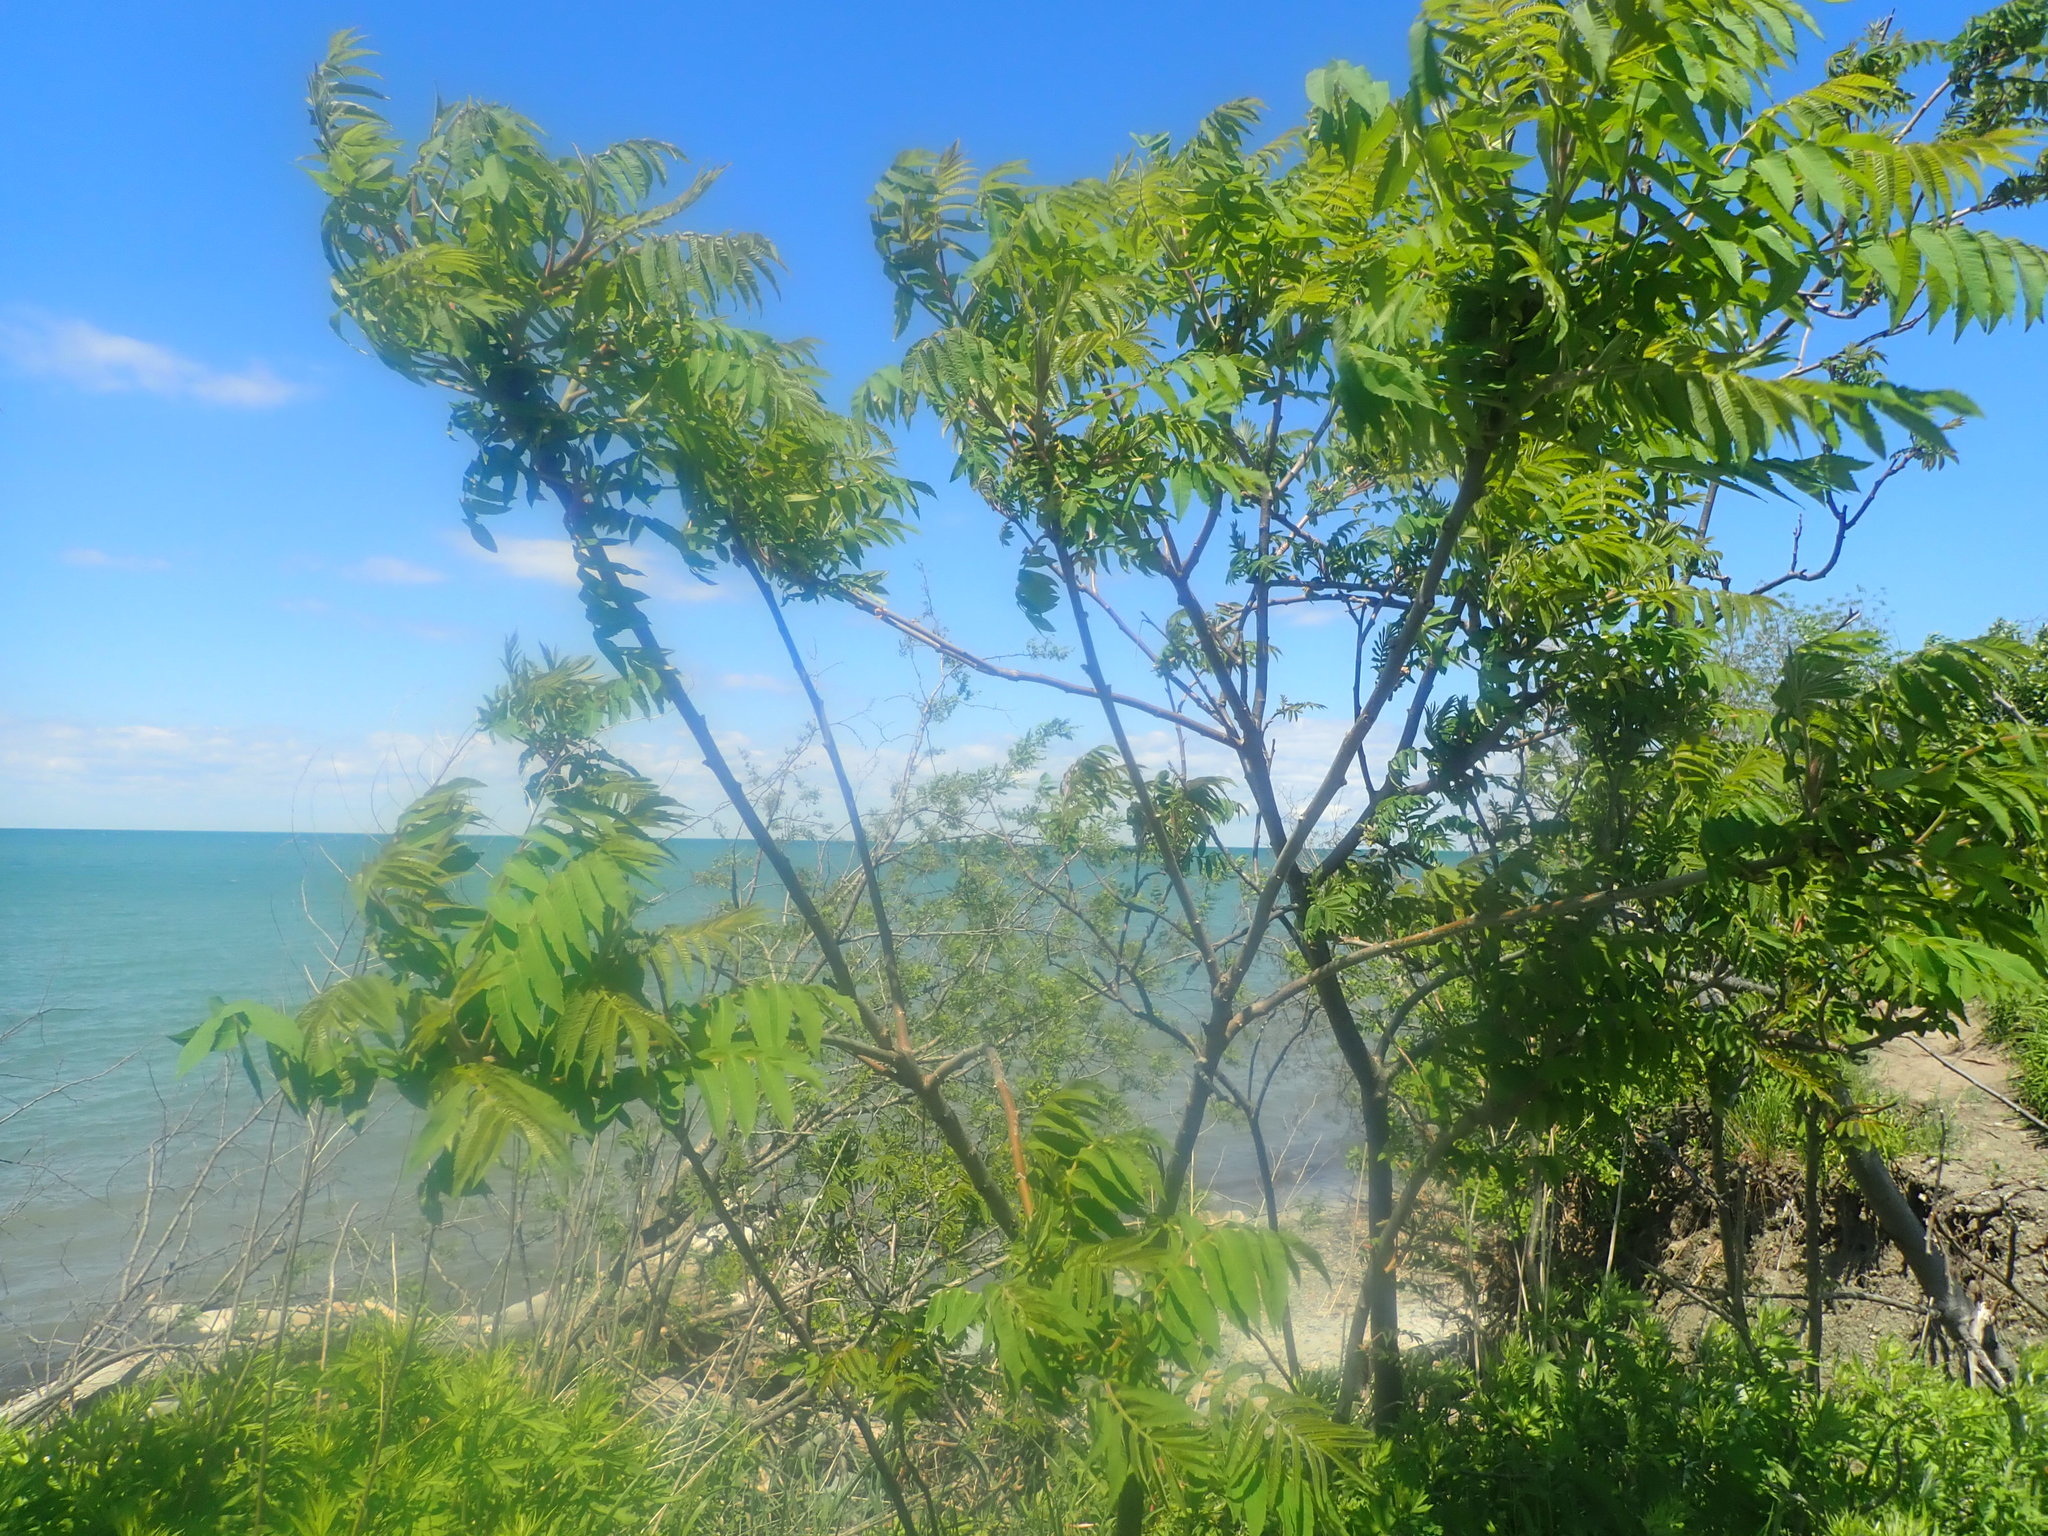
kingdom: Plantae
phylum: Tracheophyta
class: Magnoliopsida
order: Sapindales
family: Anacardiaceae
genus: Rhus
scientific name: Rhus typhina
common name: Staghorn sumac
